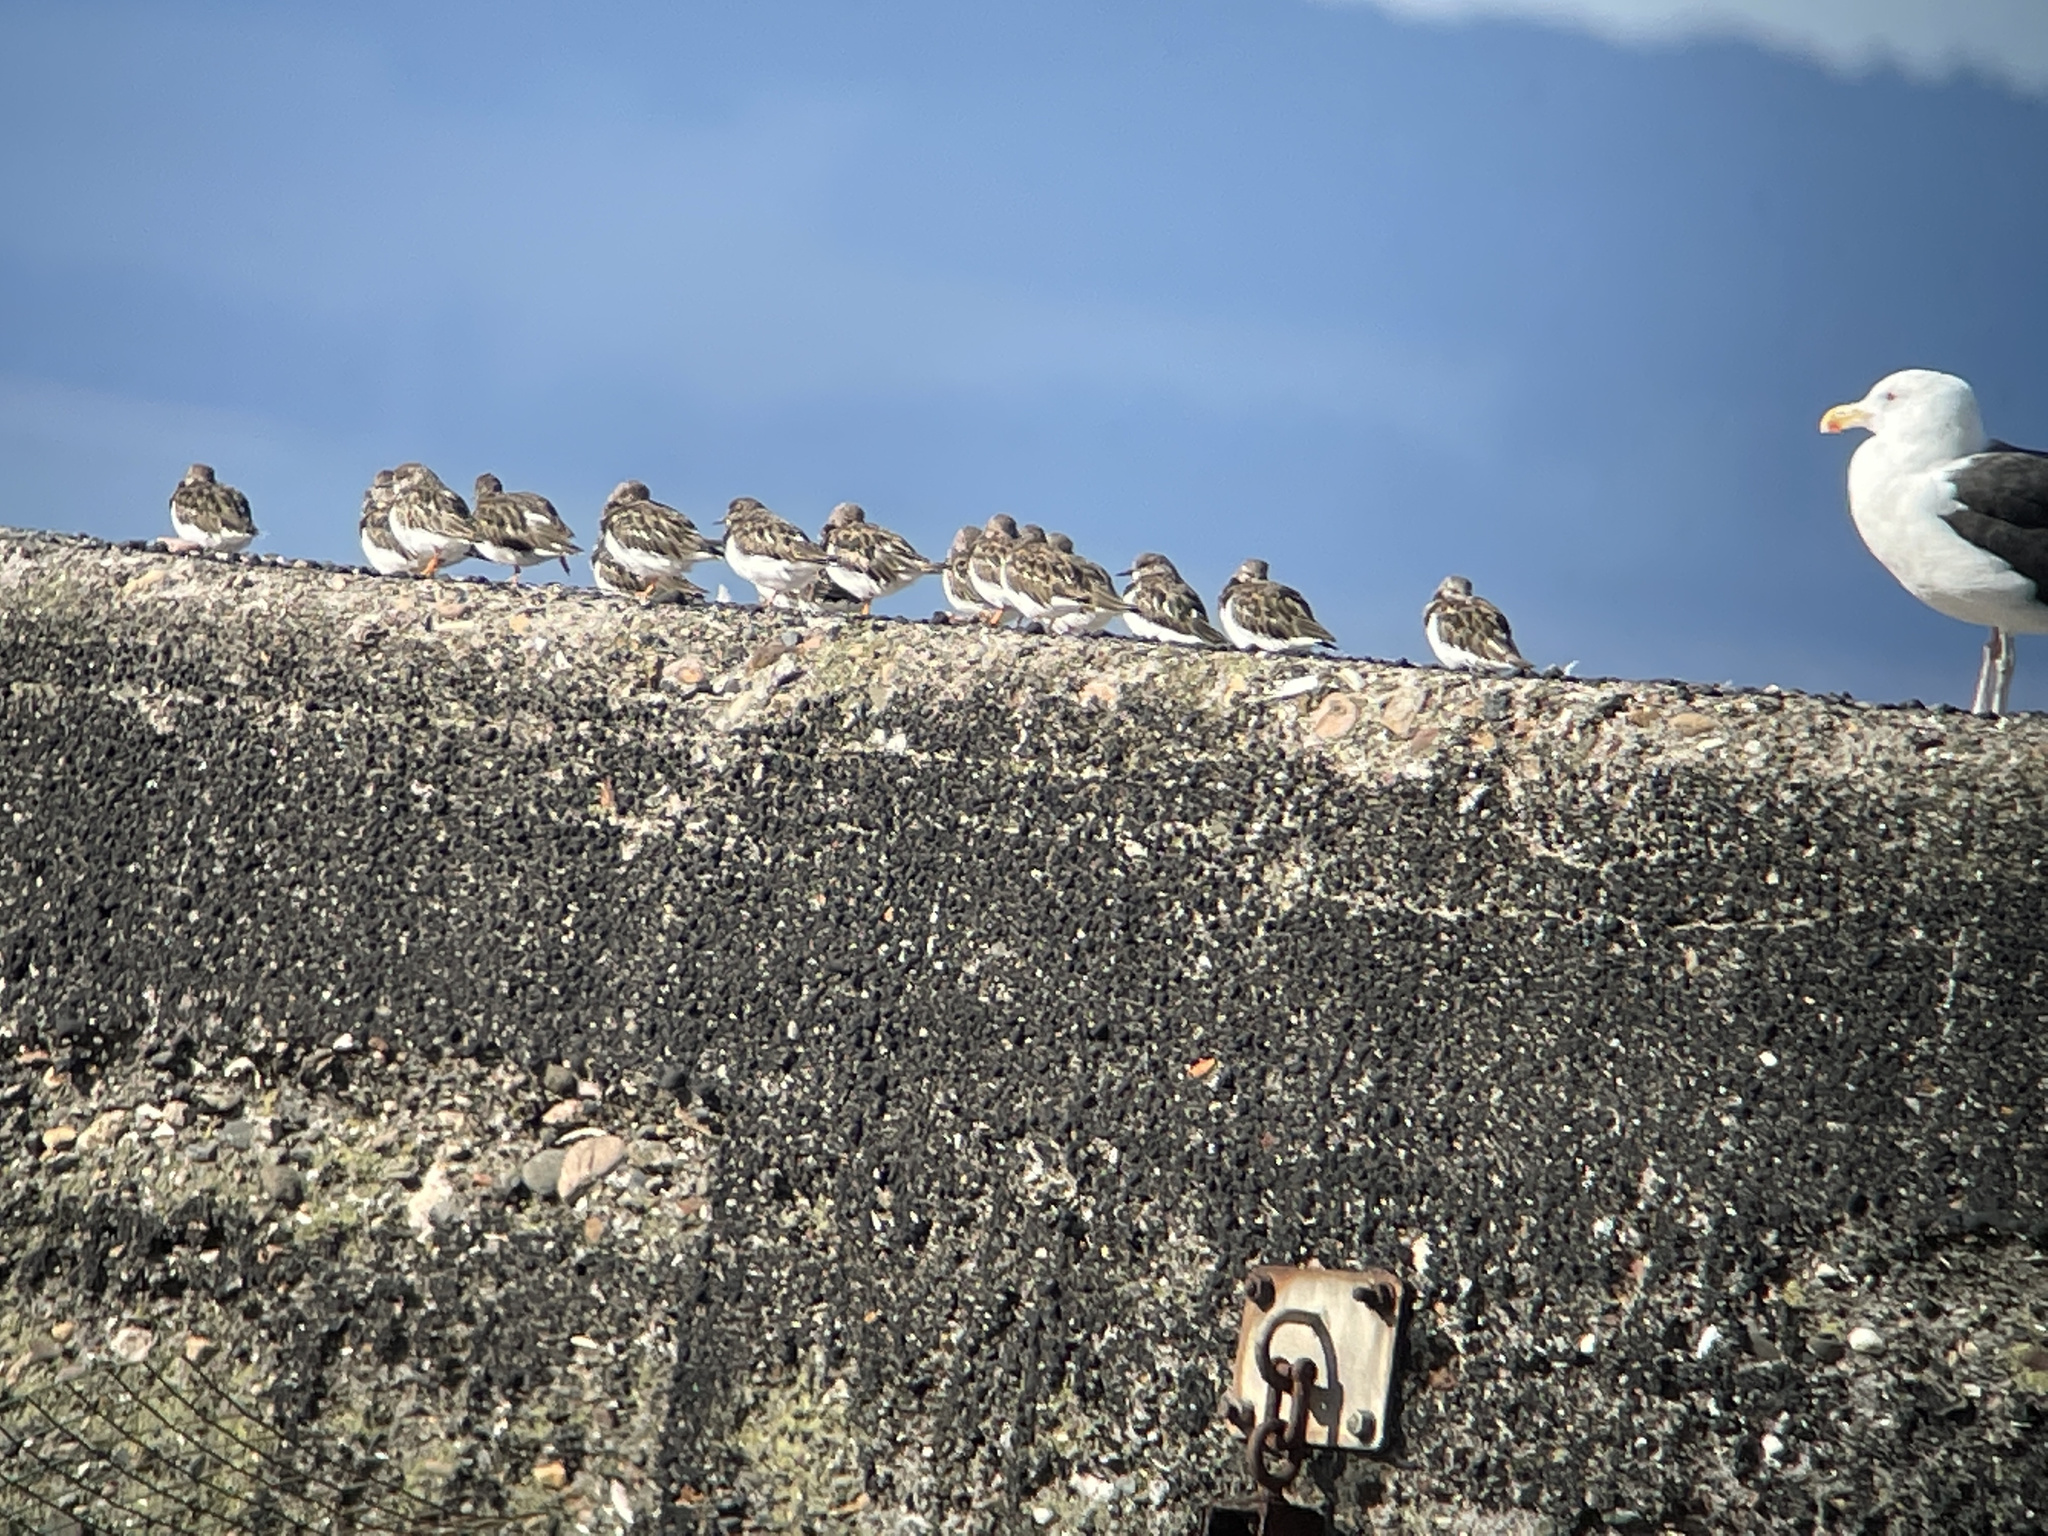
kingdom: Animalia
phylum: Chordata
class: Aves
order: Charadriiformes
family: Scolopacidae
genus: Arenaria
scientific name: Arenaria interpres
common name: Ruddy turnstone
